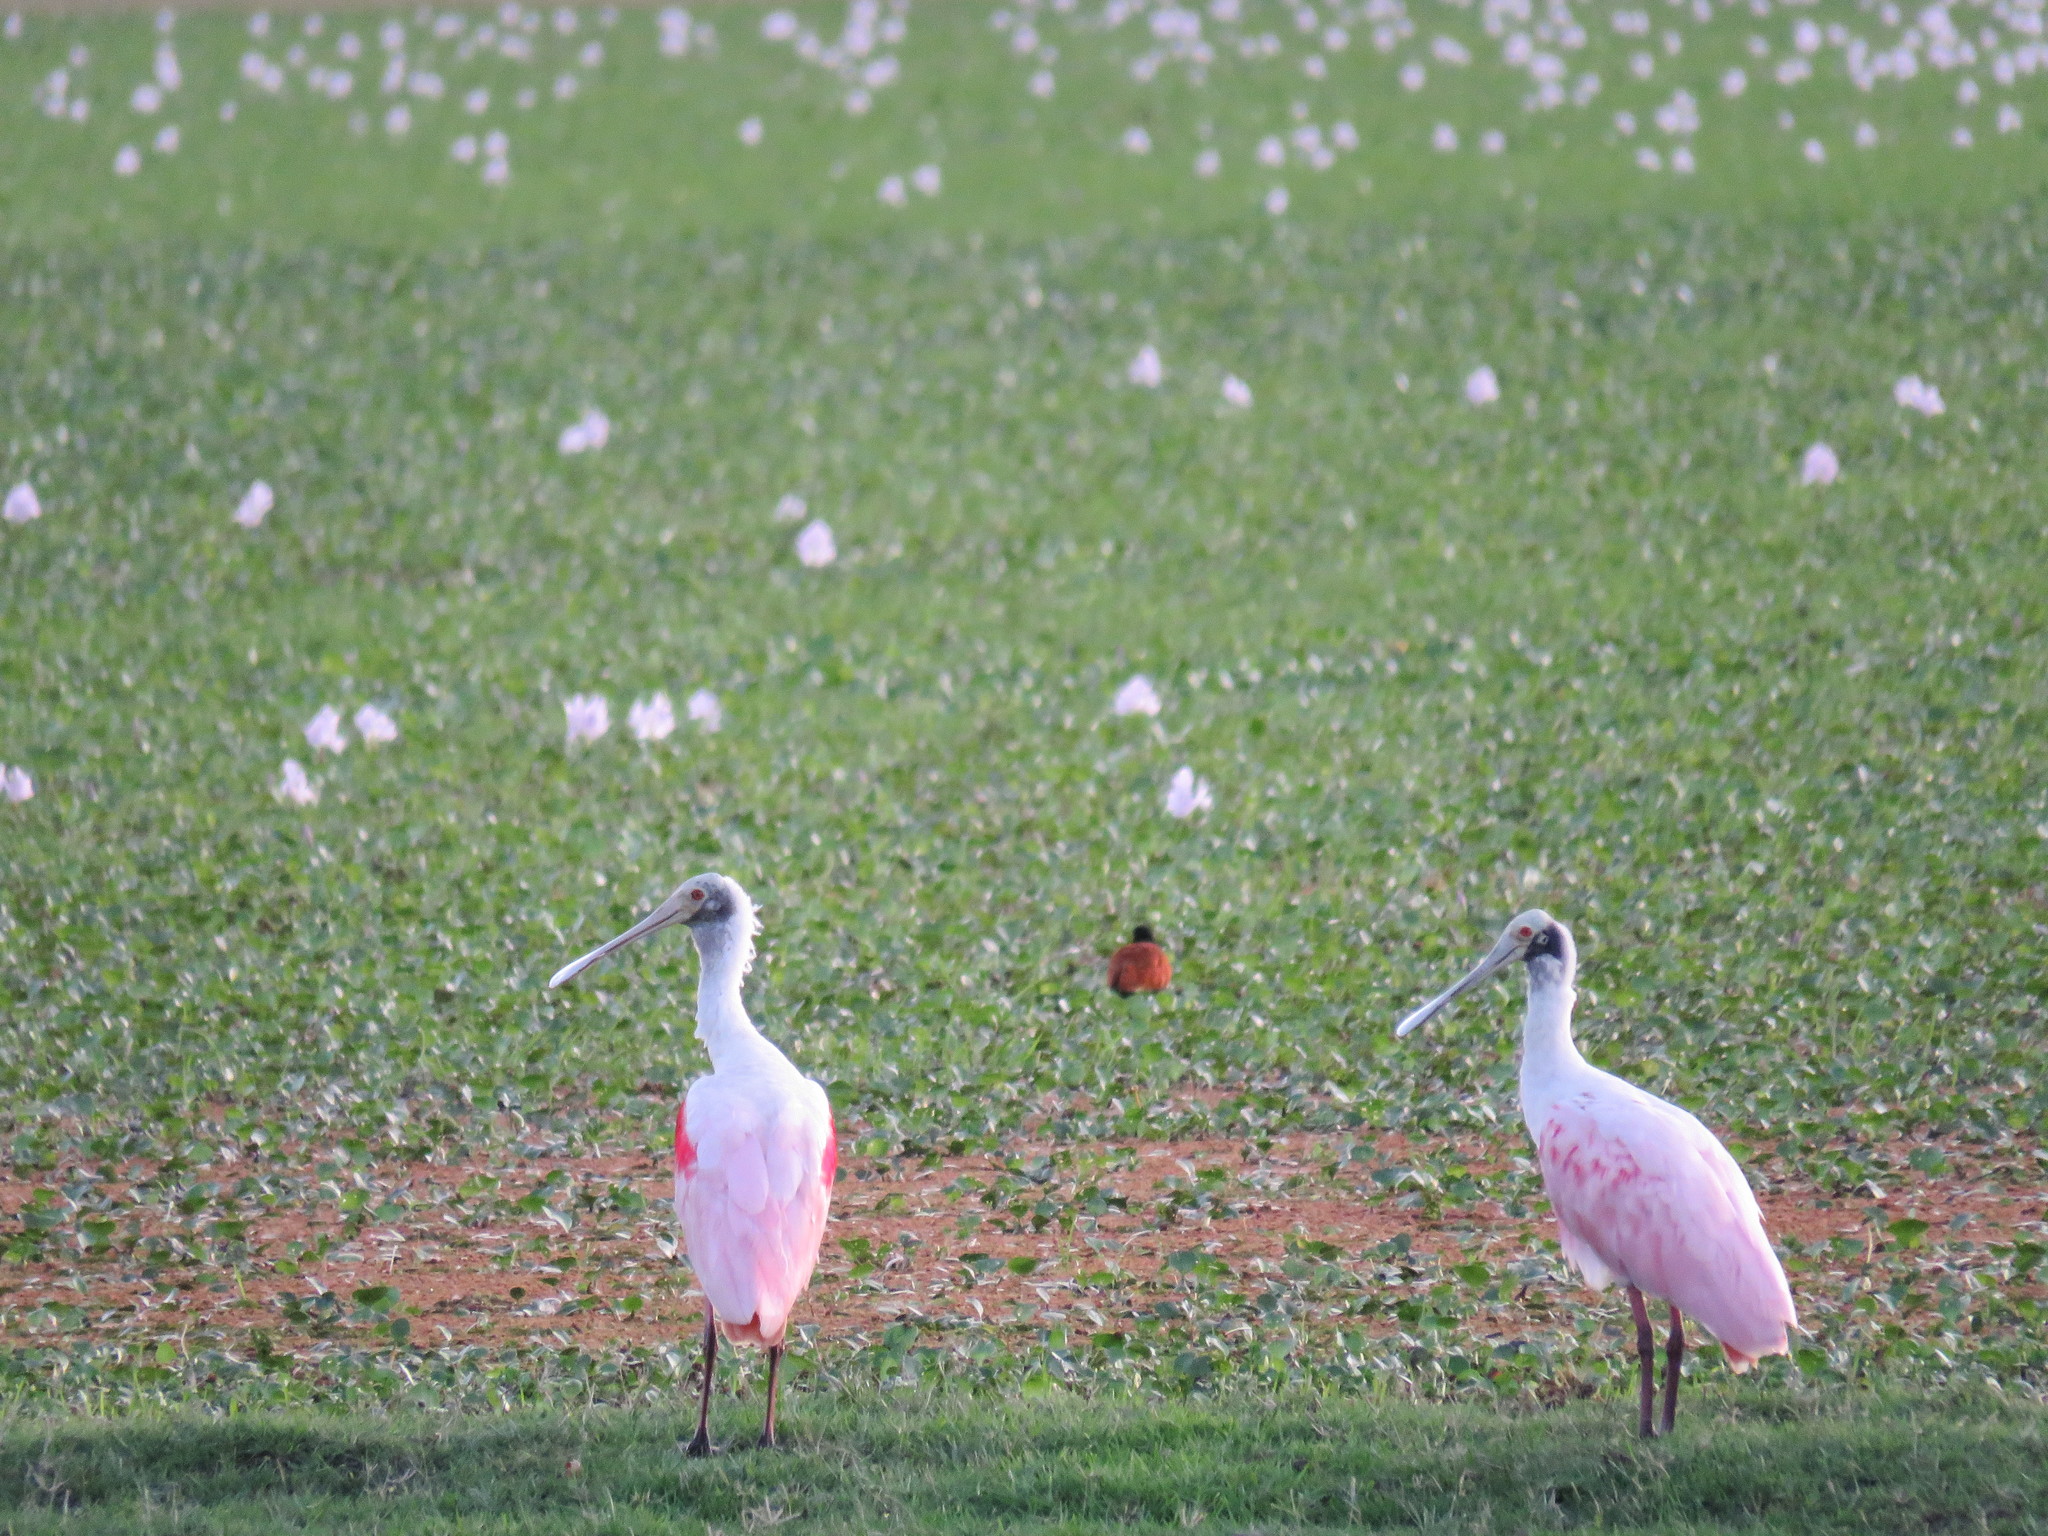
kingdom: Animalia
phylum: Chordata
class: Aves
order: Pelecaniformes
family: Threskiornithidae
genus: Platalea
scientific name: Platalea ajaja
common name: Roseate spoonbill
